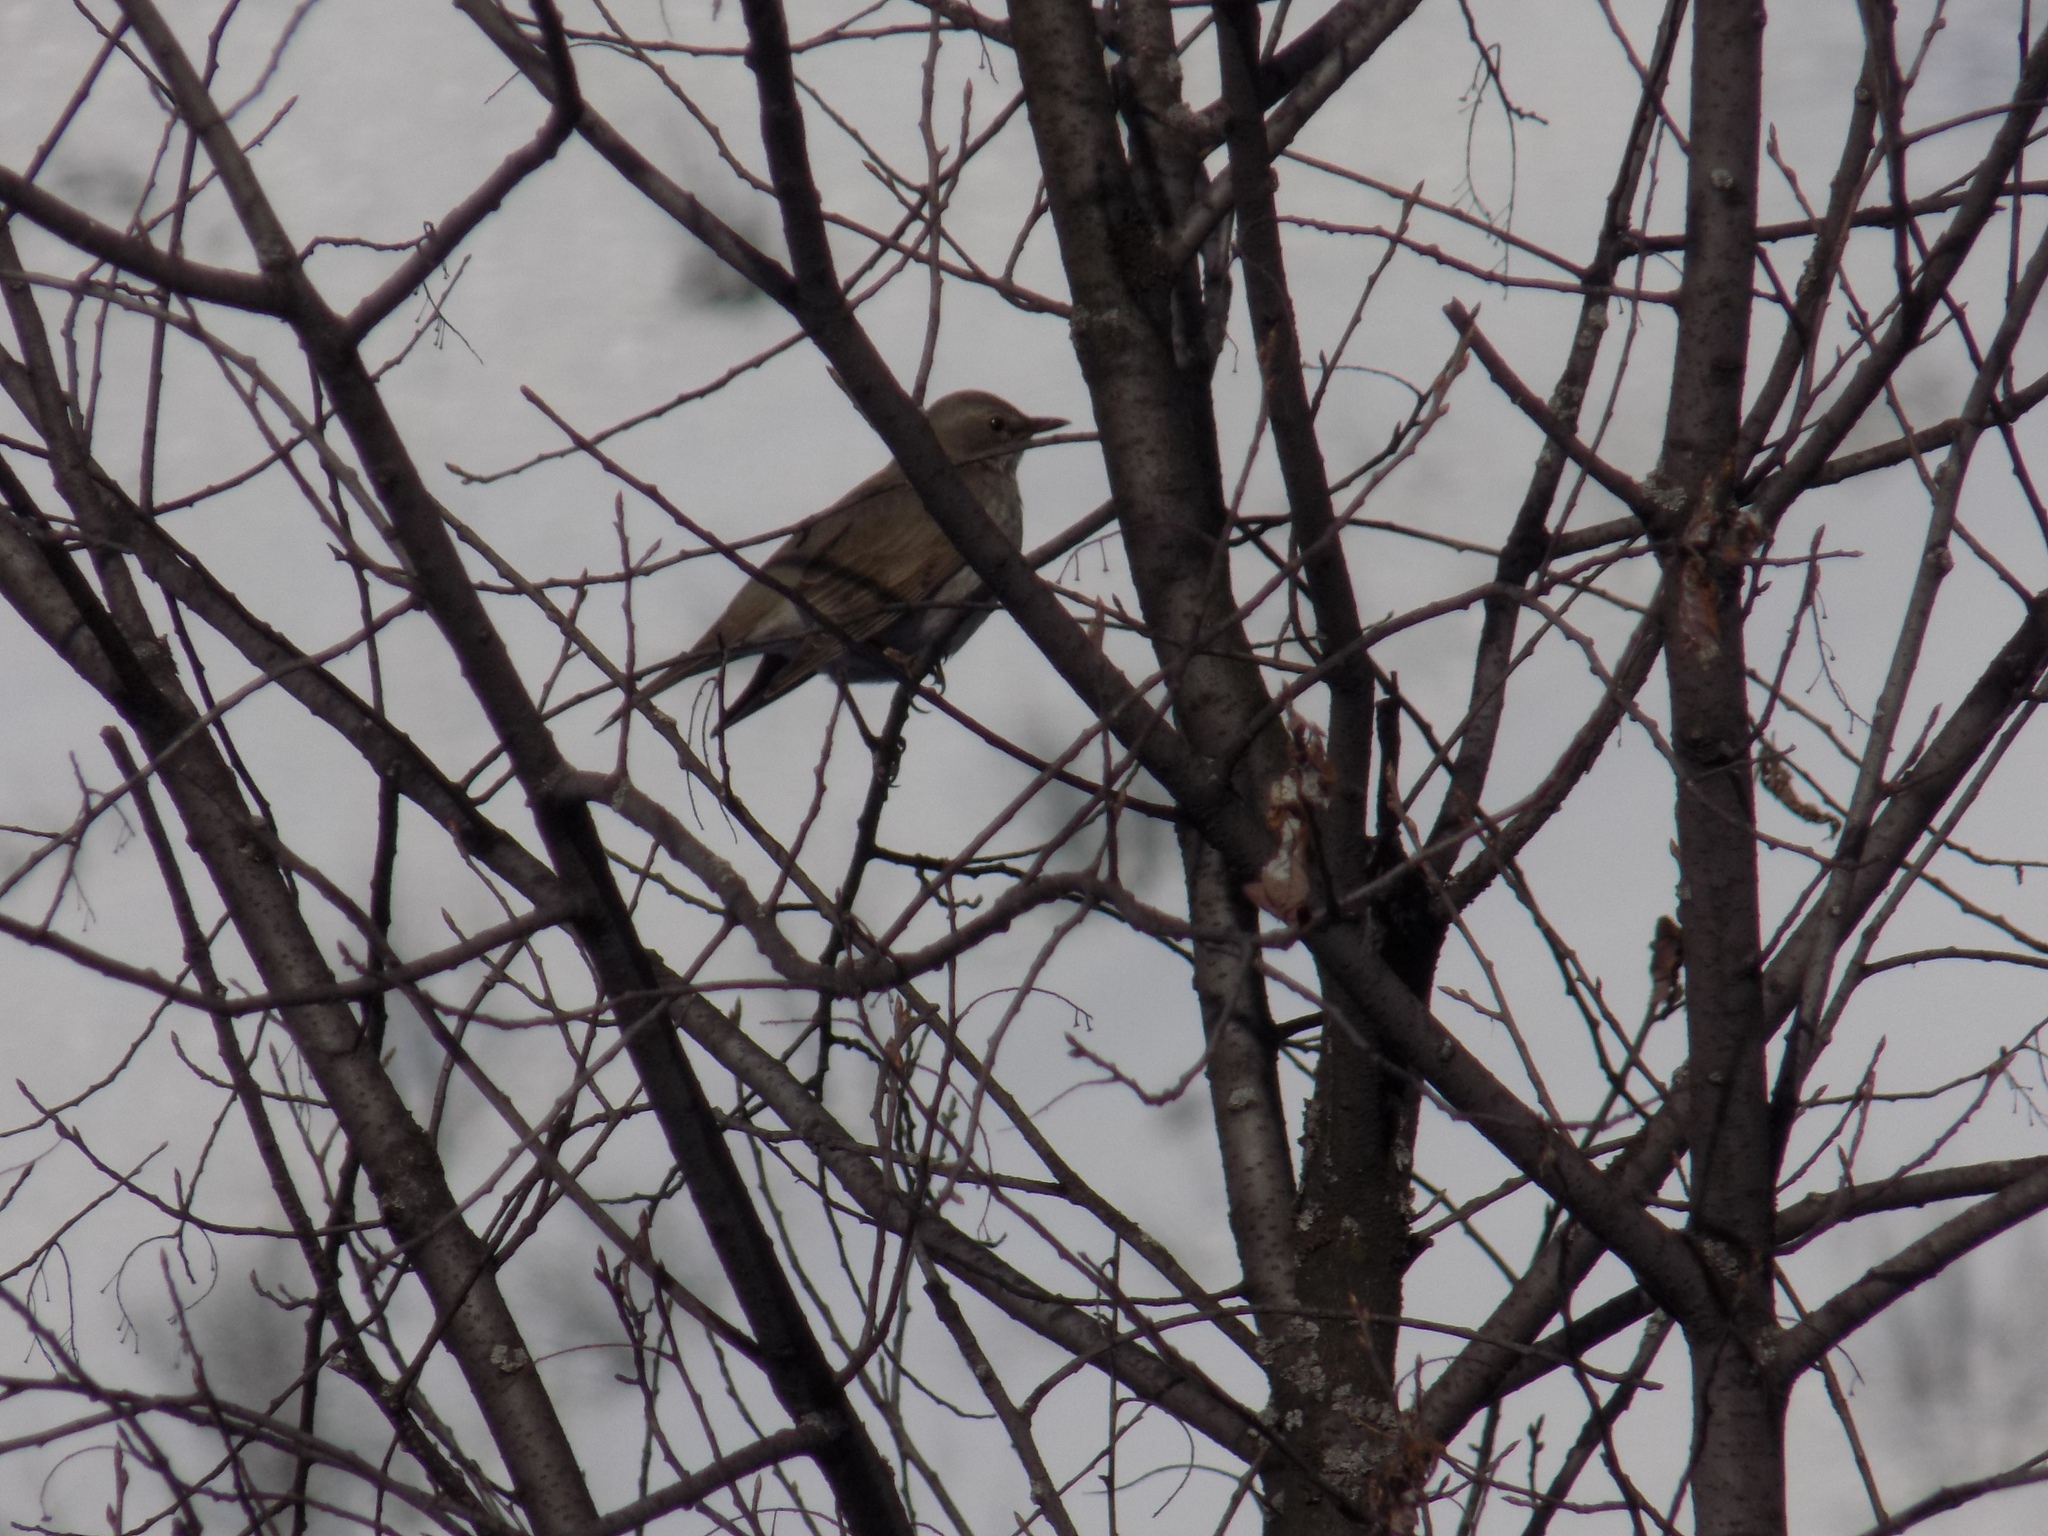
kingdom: Animalia
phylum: Chordata
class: Aves
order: Passeriformes
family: Turdidae
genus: Turdus
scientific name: Turdus atrogularis
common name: Black-throated thrush
